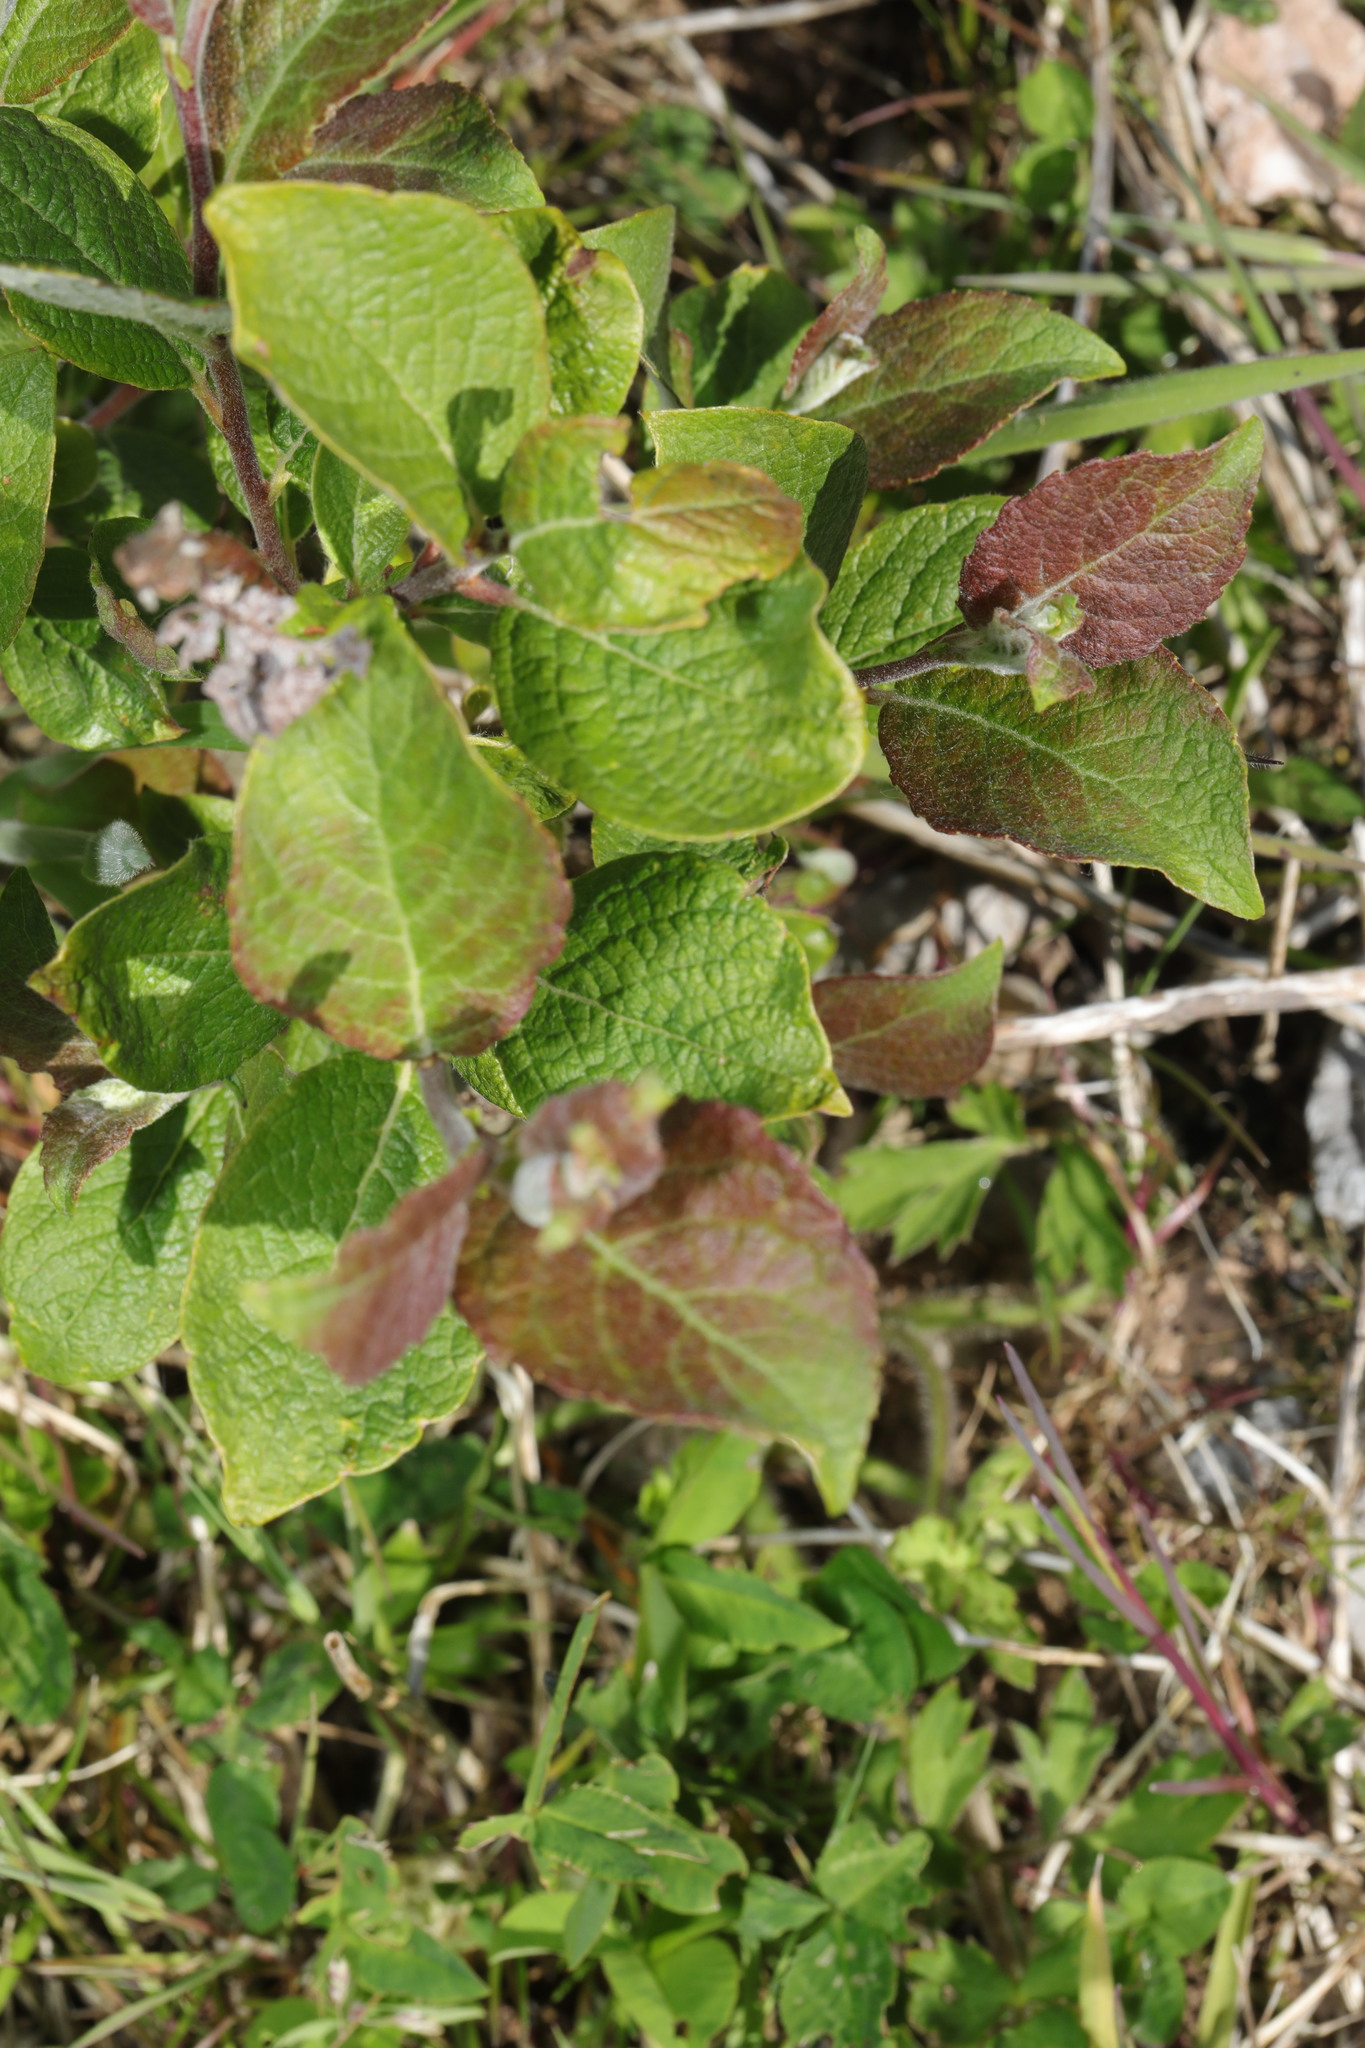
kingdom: Plantae
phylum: Tracheophyta
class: Magnoliopsida
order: Malpighiales
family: Salicaceae
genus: Salix
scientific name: Salix caprea
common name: Goat willow
